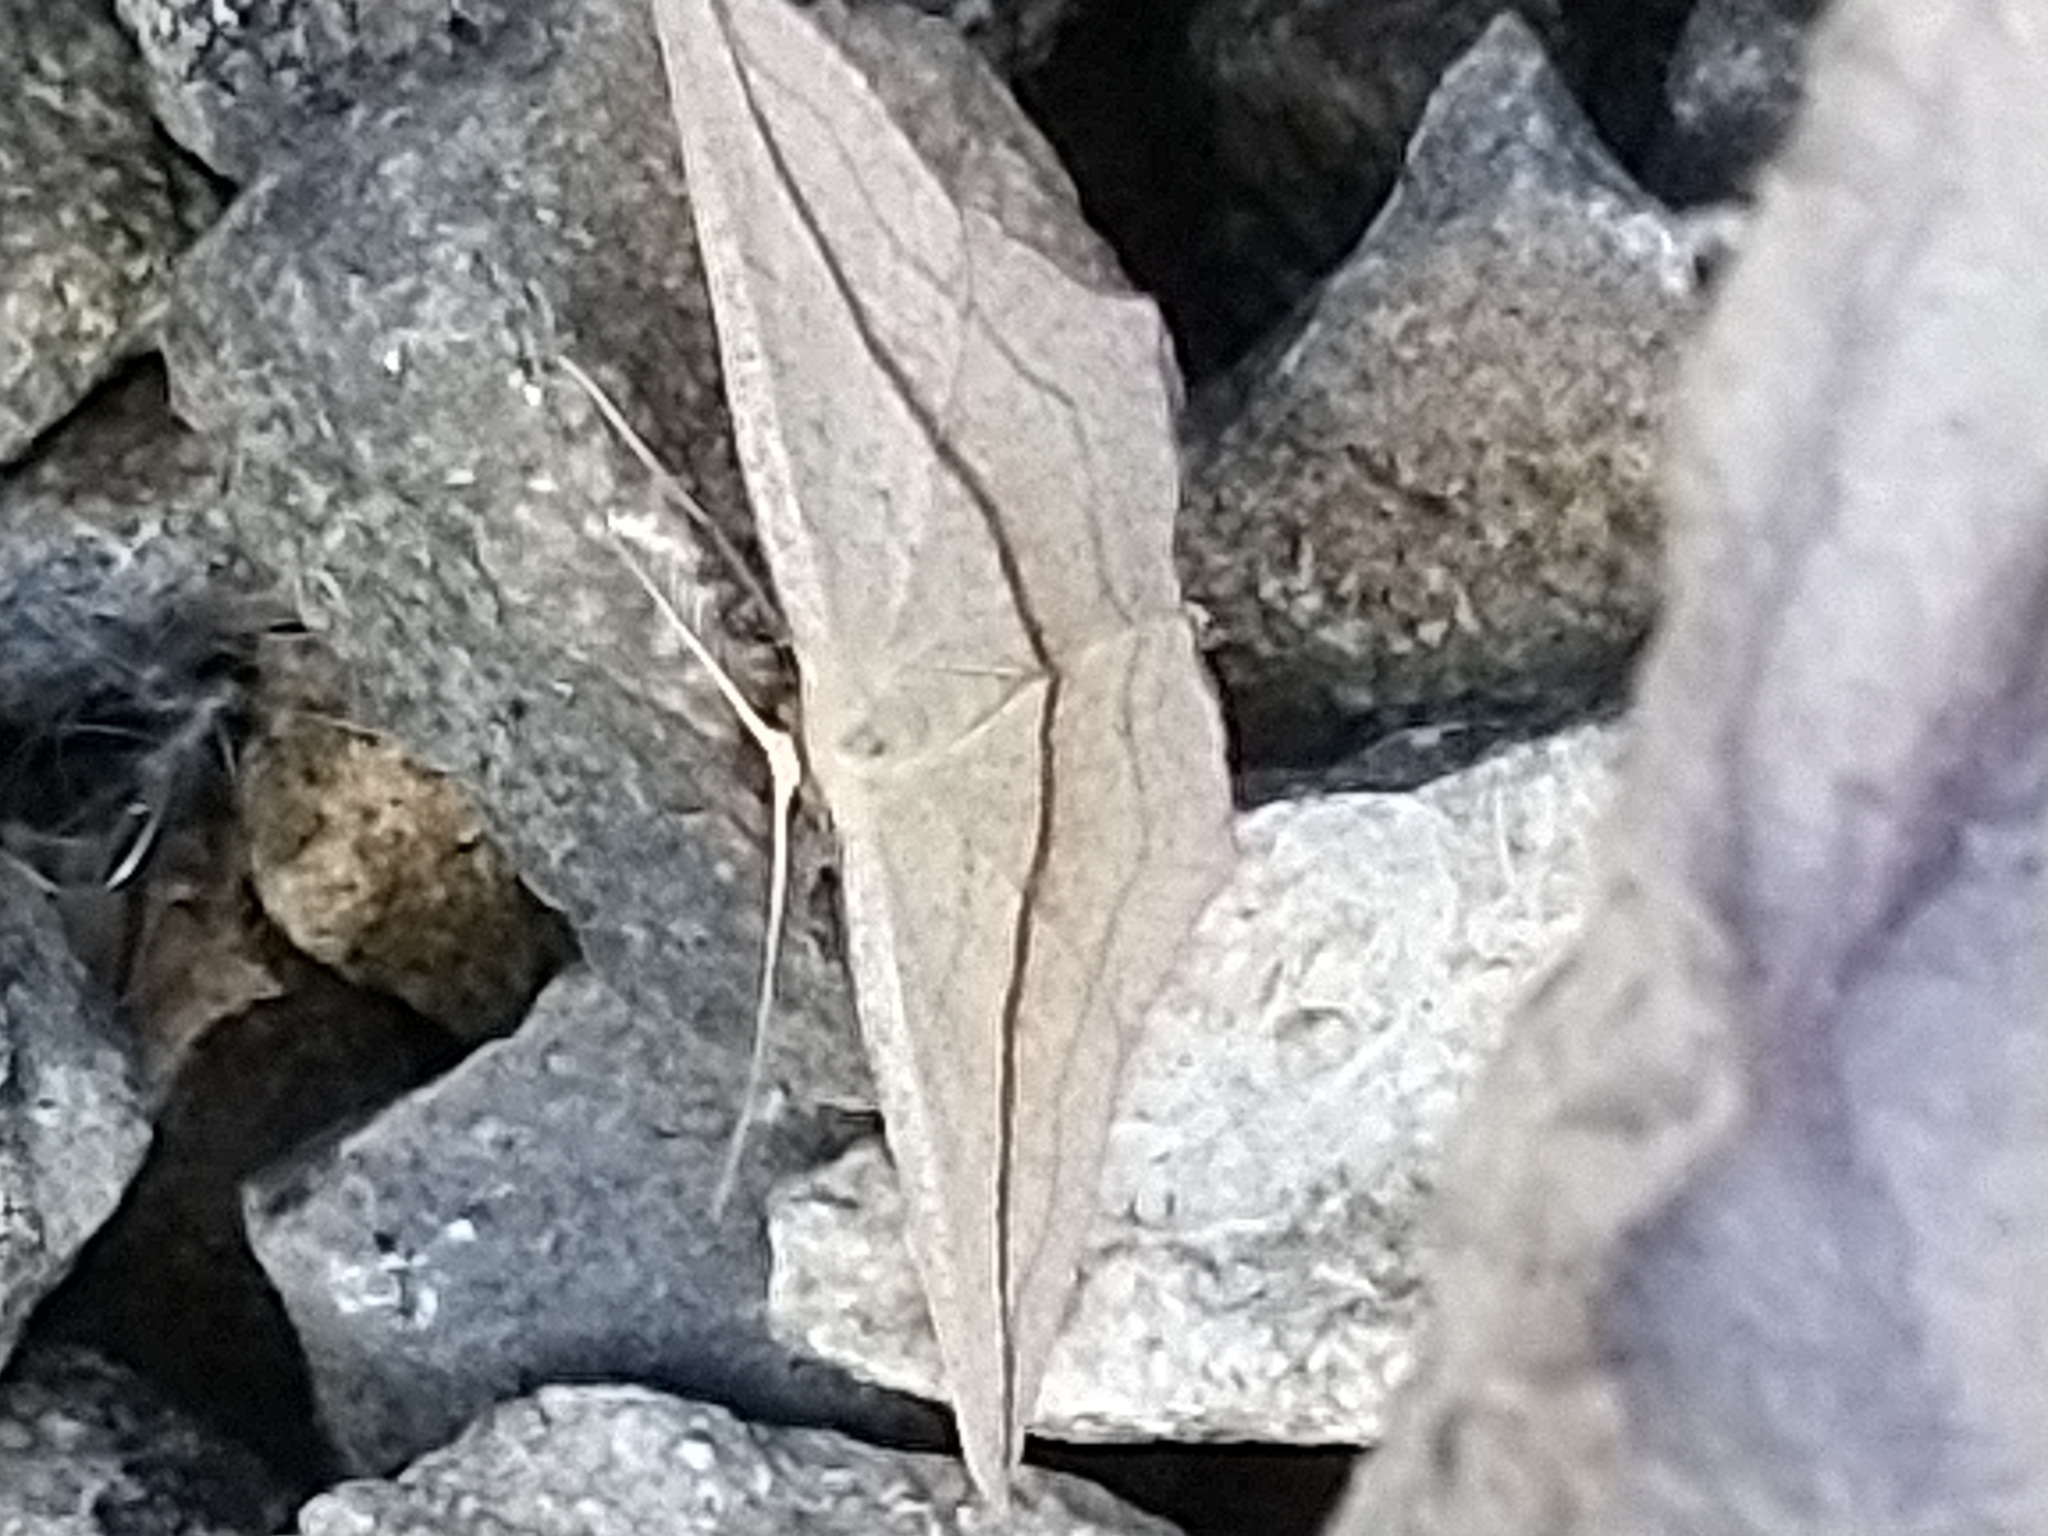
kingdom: Animalia
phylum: Arthropoda
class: Insecta
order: Lepidoptera
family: Geometridae
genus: Timandra
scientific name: Timandra comae
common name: Blood-vein
